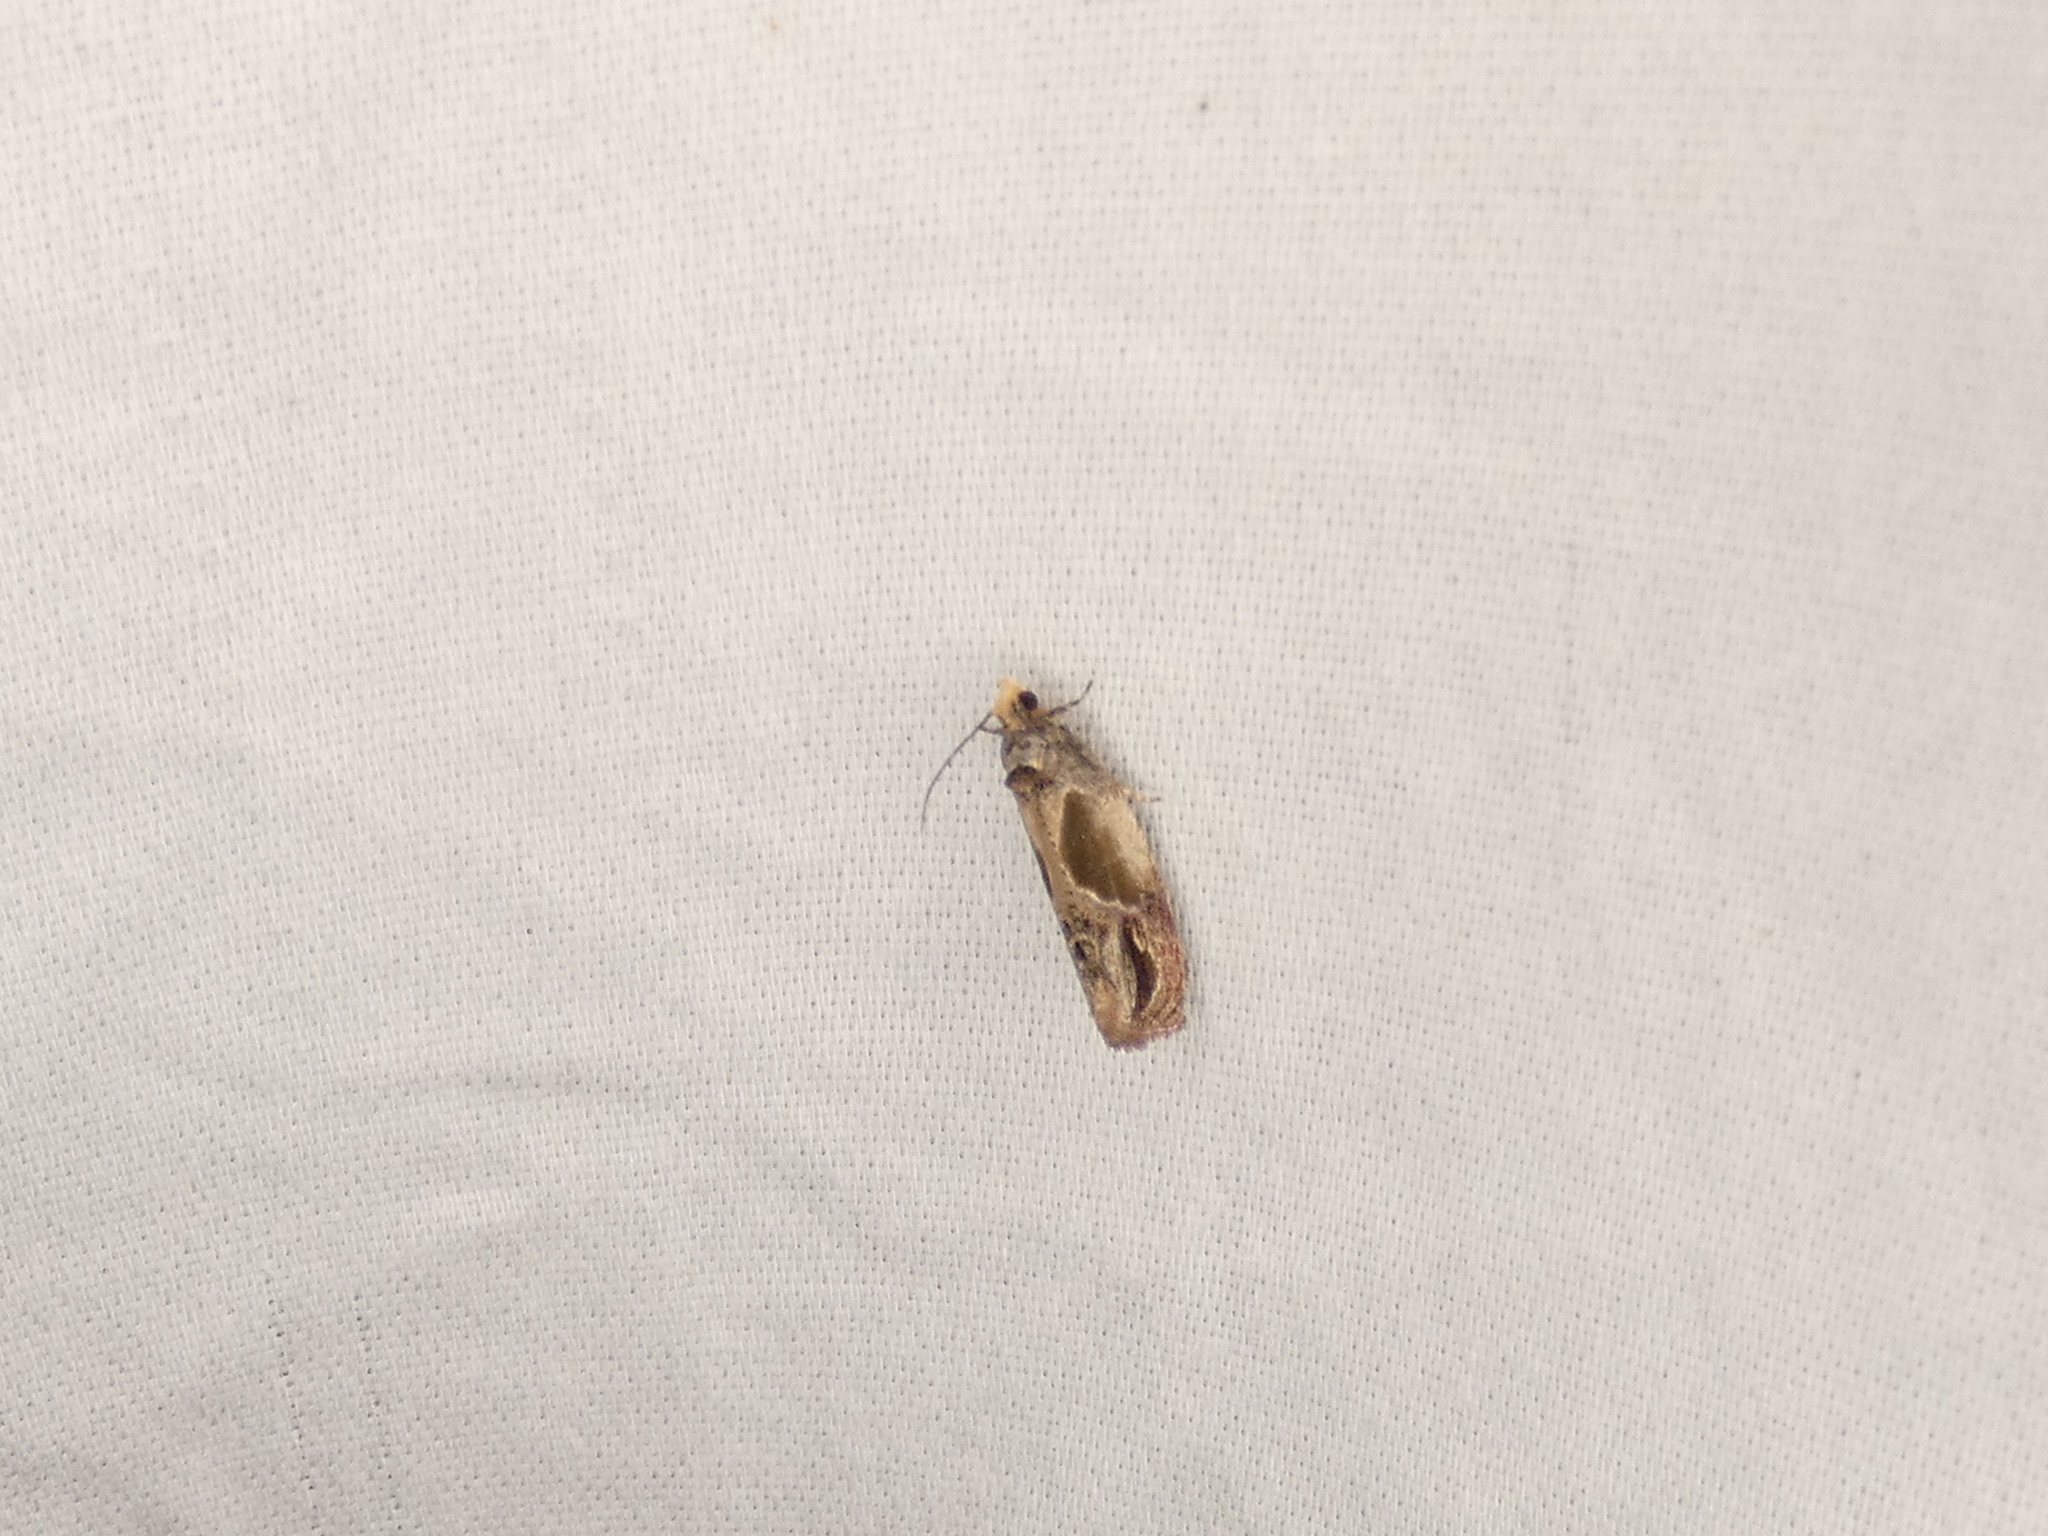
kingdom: Animalia
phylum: Arthropoda
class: Insecta
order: Lepidoptera
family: Tortricidae
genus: Eumarozia
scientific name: Eumarozia malachitana
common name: Sculptured moth
